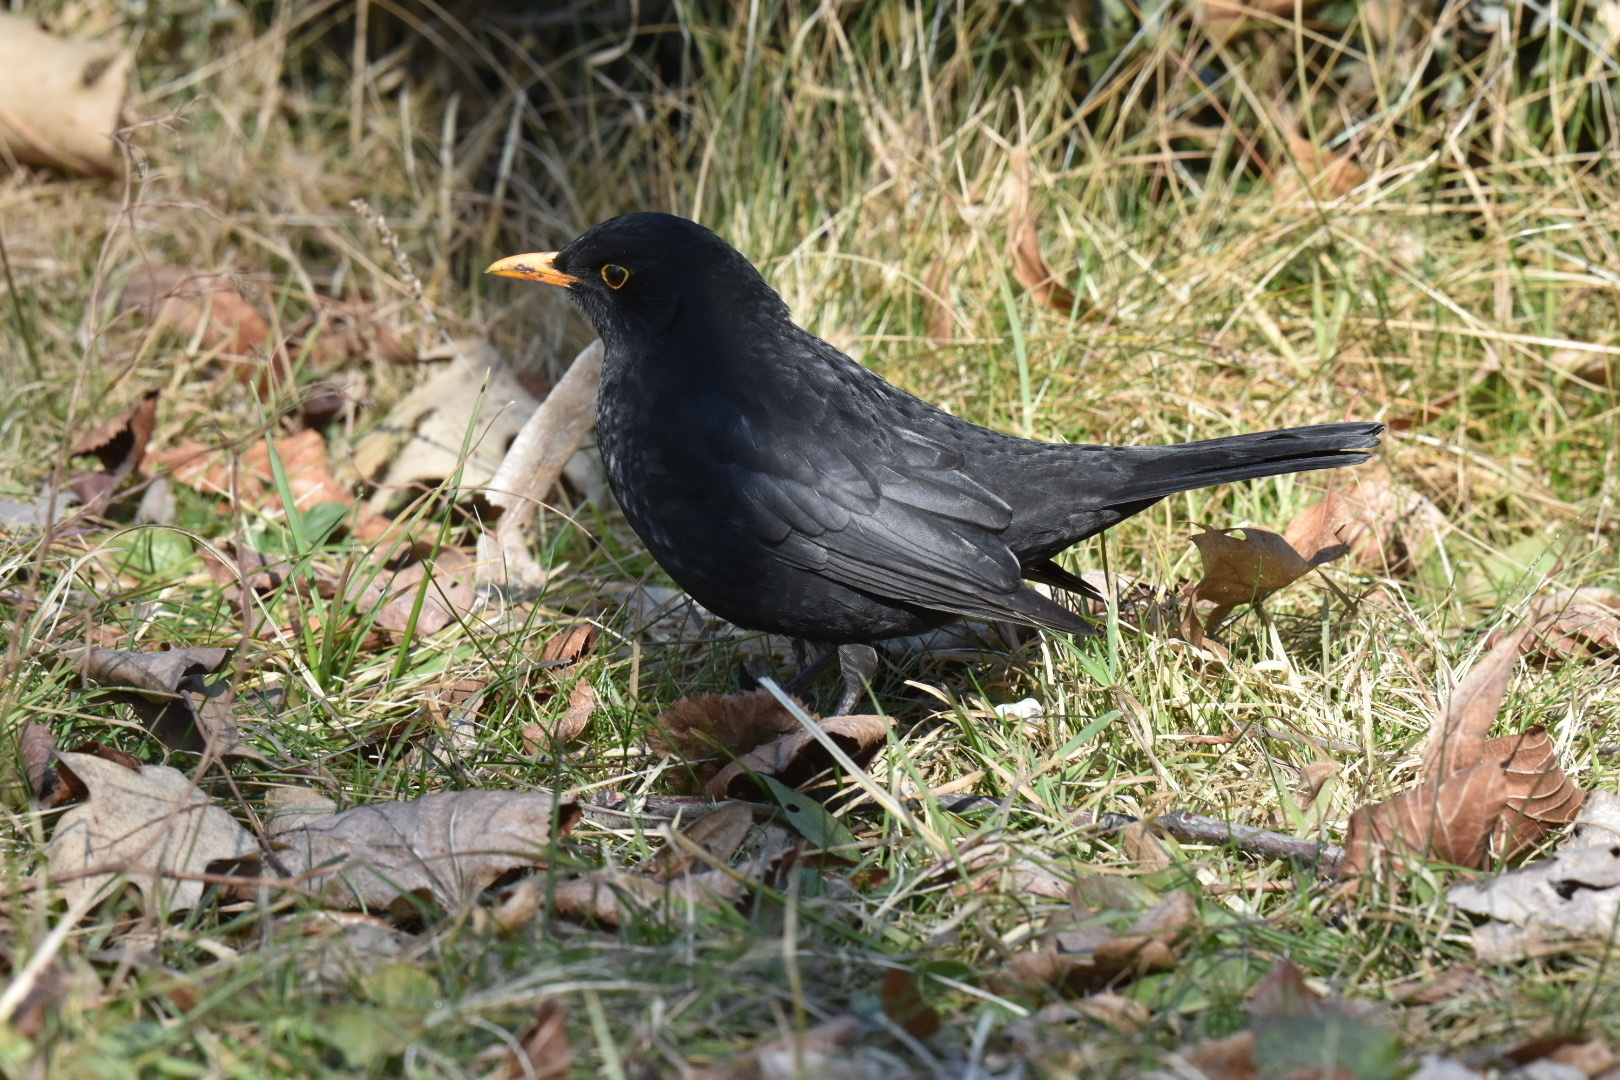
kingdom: Animalia
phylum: Chordata
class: Aves
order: Passeriformes
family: Turdidae
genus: Turdus
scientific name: Turdus merula
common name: Common blackbird
